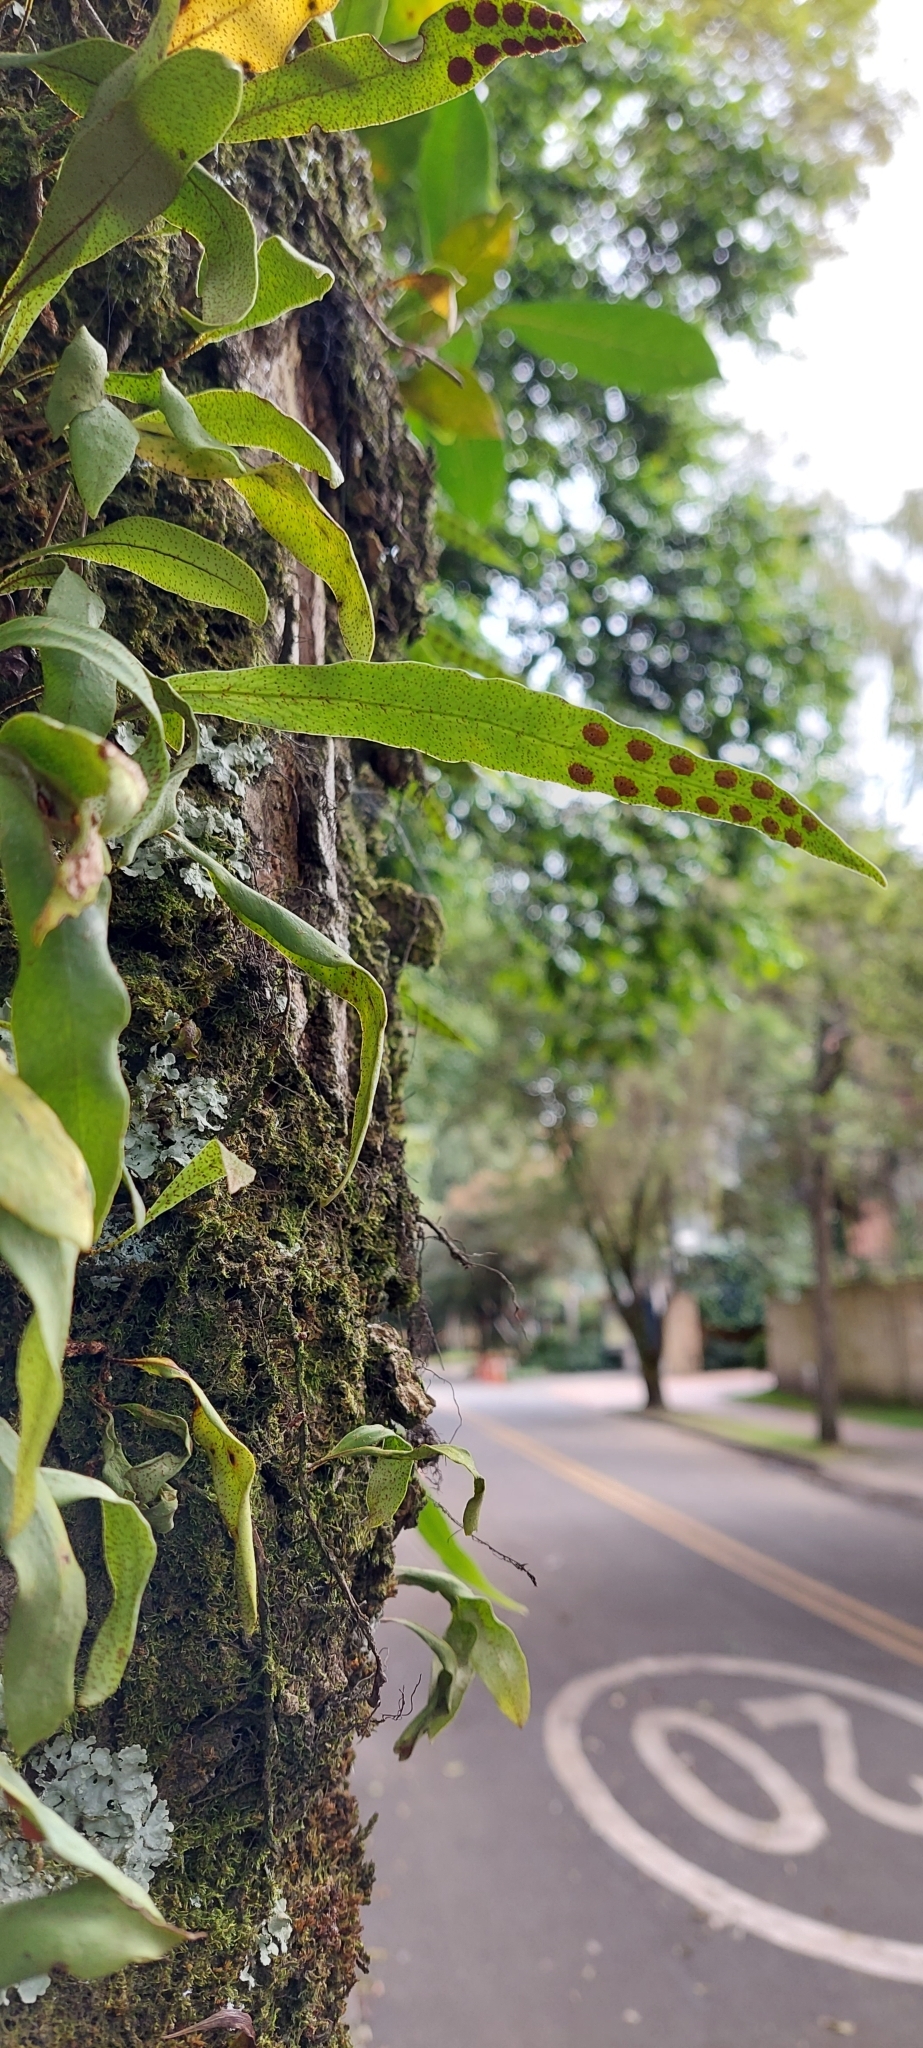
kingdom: Plantae
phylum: Tracheophyta
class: Polypodiopsida
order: Polypodiales
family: Polypodiaceae
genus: Pleopeltis
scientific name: Pleopeltis macrocarpa
